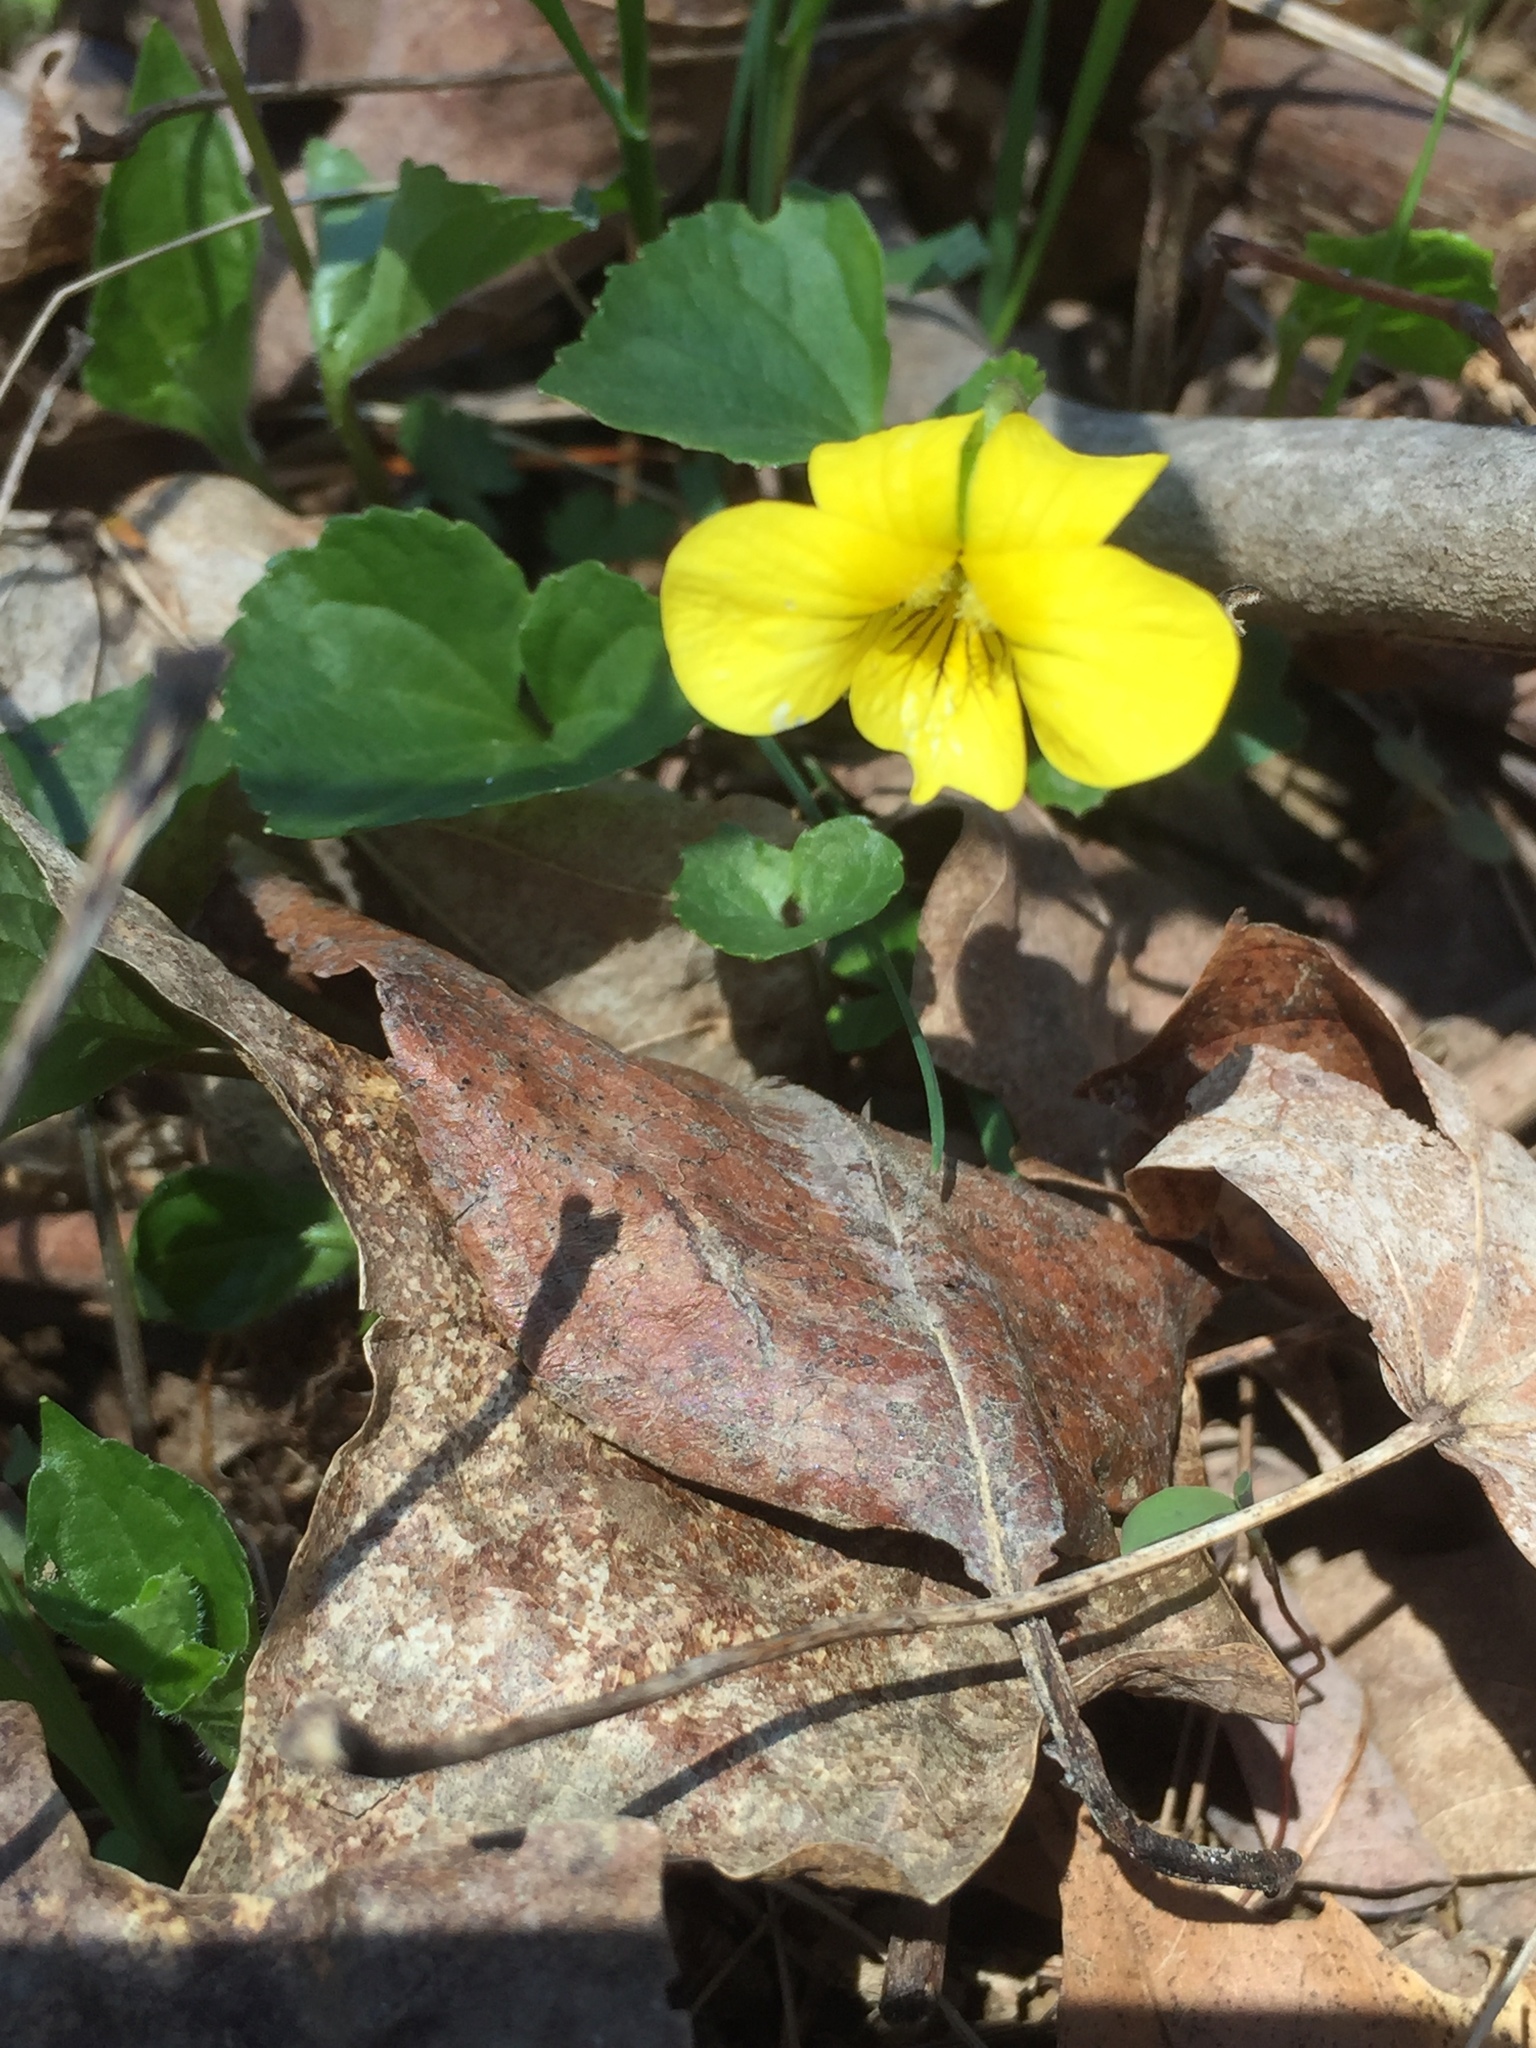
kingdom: Plantae
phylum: Tracheophyta
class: Magnoliopsida
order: Malpighiales
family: Violaceae
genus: Viola
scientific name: Viola eriocarpa
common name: Smooth yellow violet
